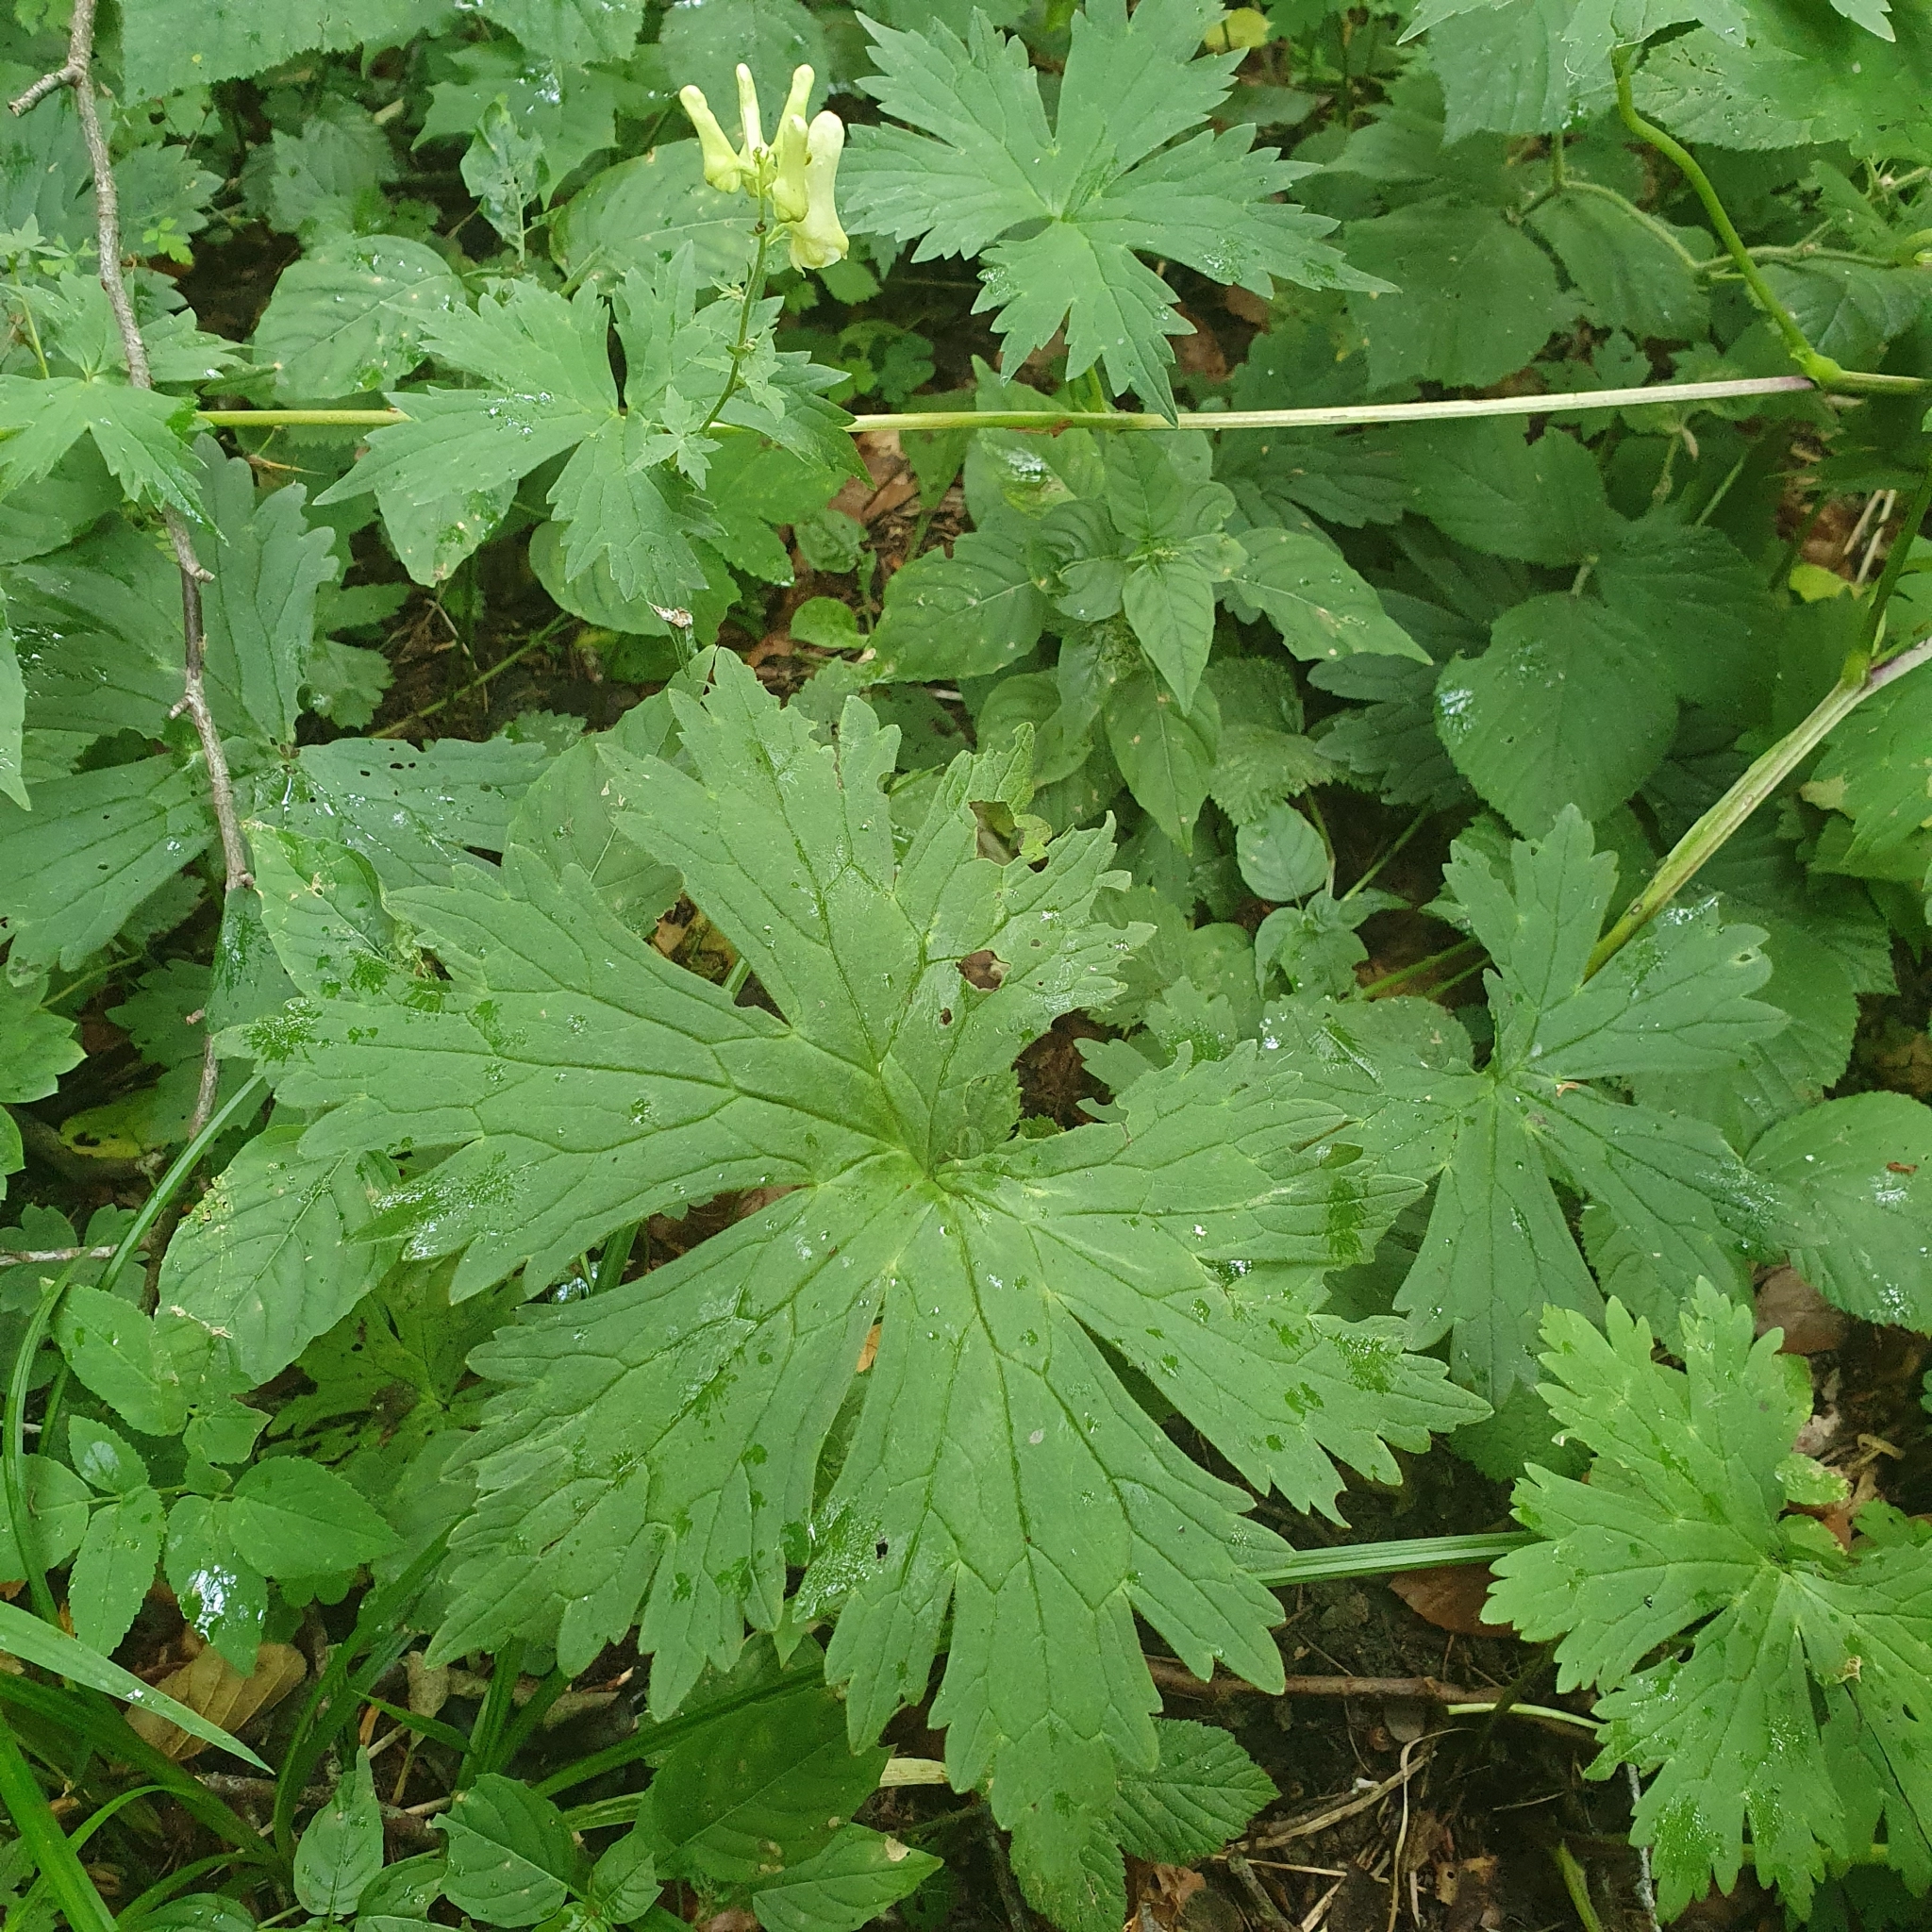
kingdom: Plantae
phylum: Tracheophyta
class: Magnoliopsida
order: Ranunculales
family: Ranunculaceae
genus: Aconitum
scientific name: Aconitum lycoctonum
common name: Wolf's-bane
